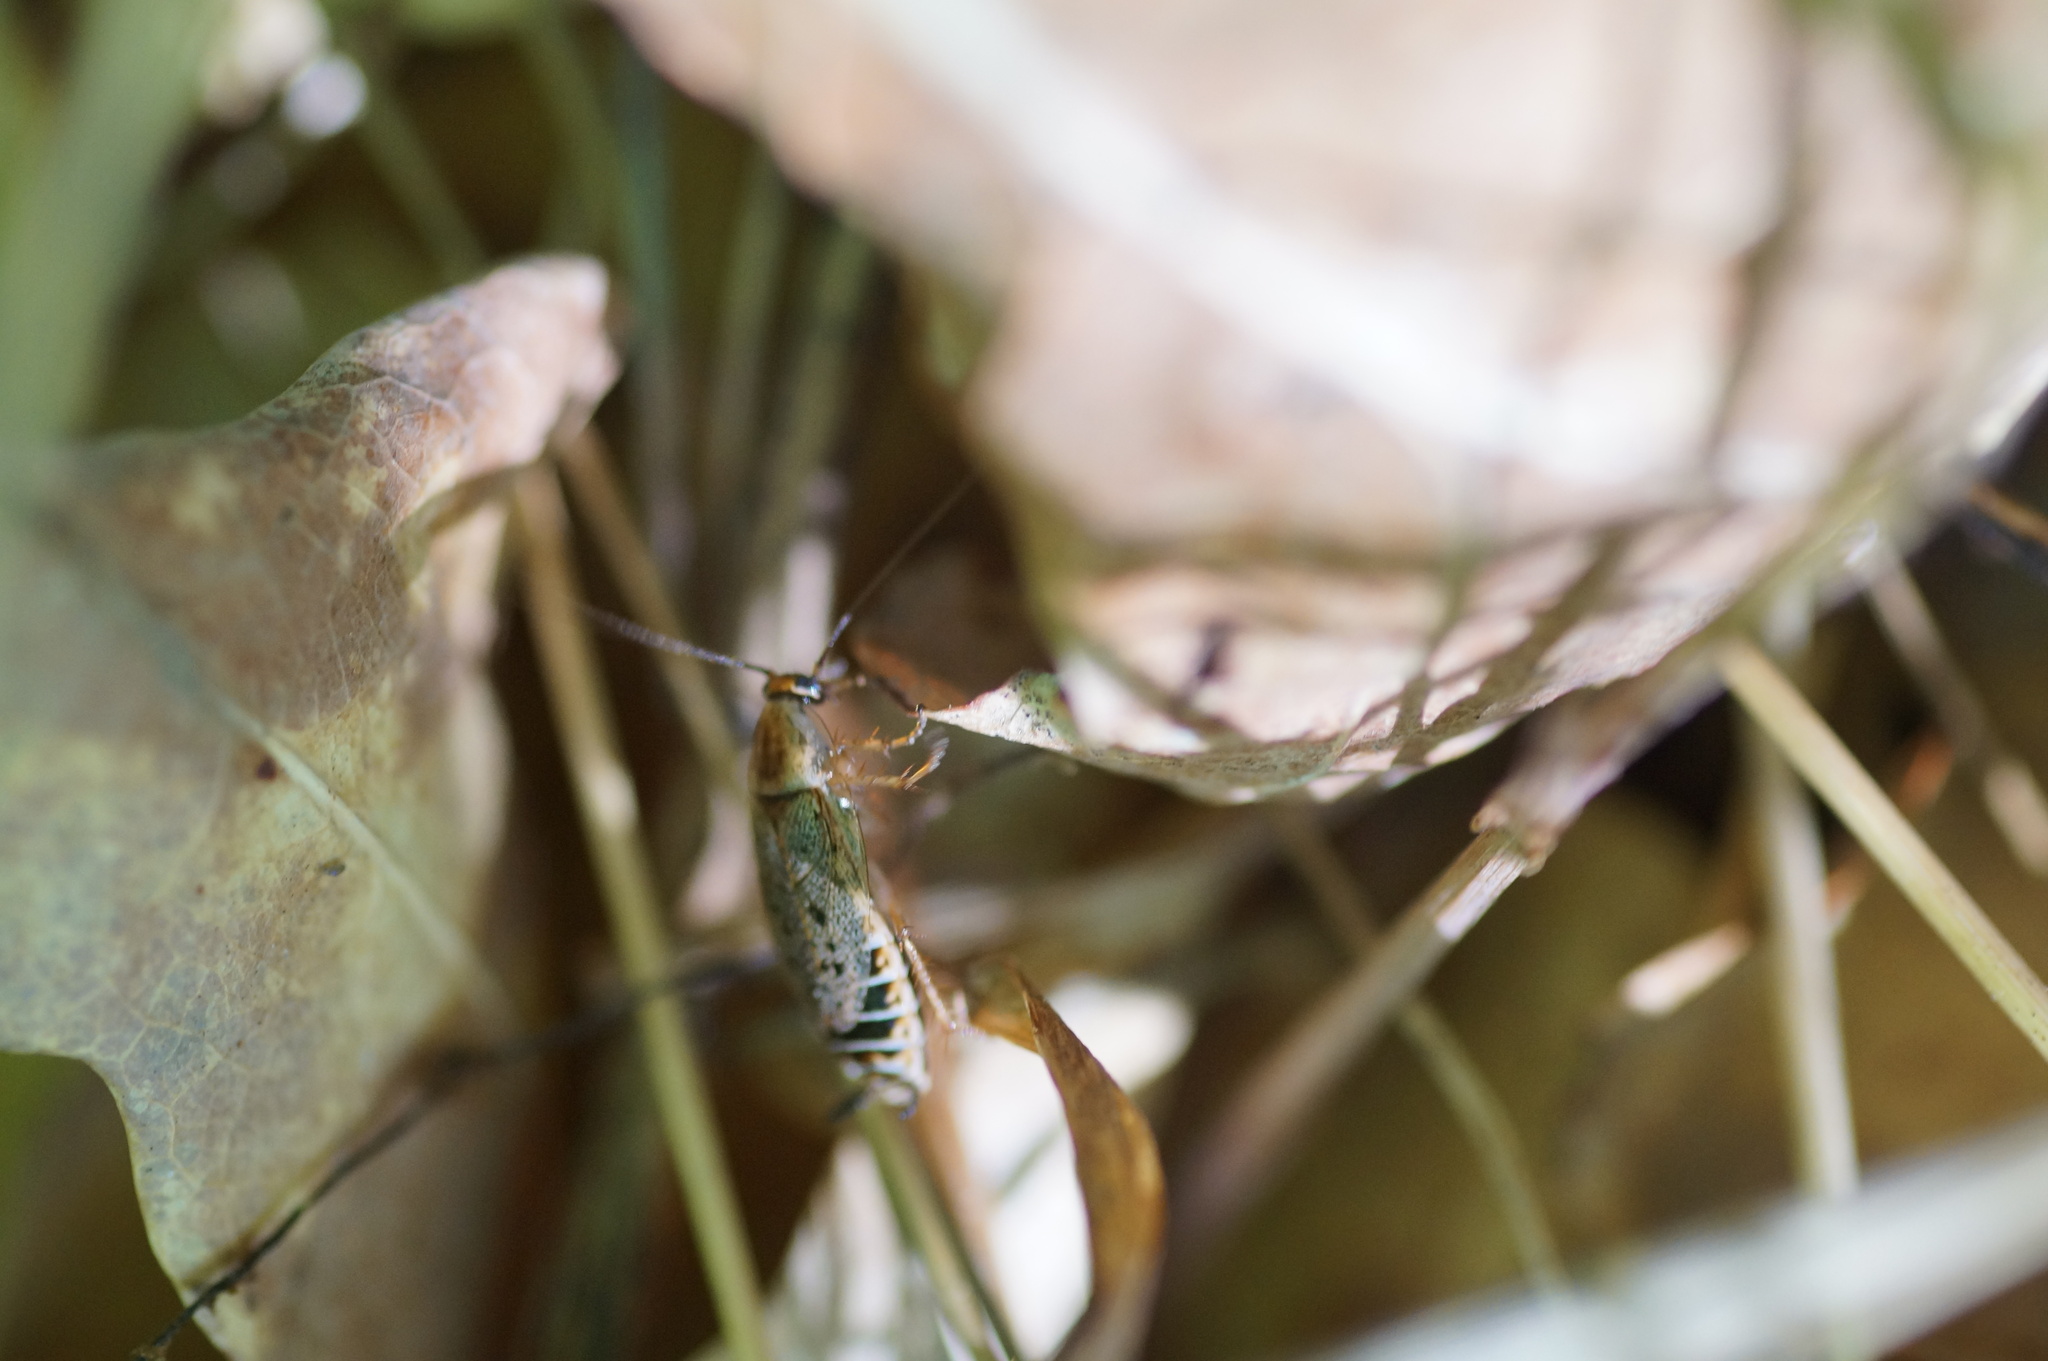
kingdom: Animalia
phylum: Arthropoda
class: Insecta
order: Blattodea
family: Ectobiidae
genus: Ectobius
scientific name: Ectobius lapponicus
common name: Dusky cockroach
